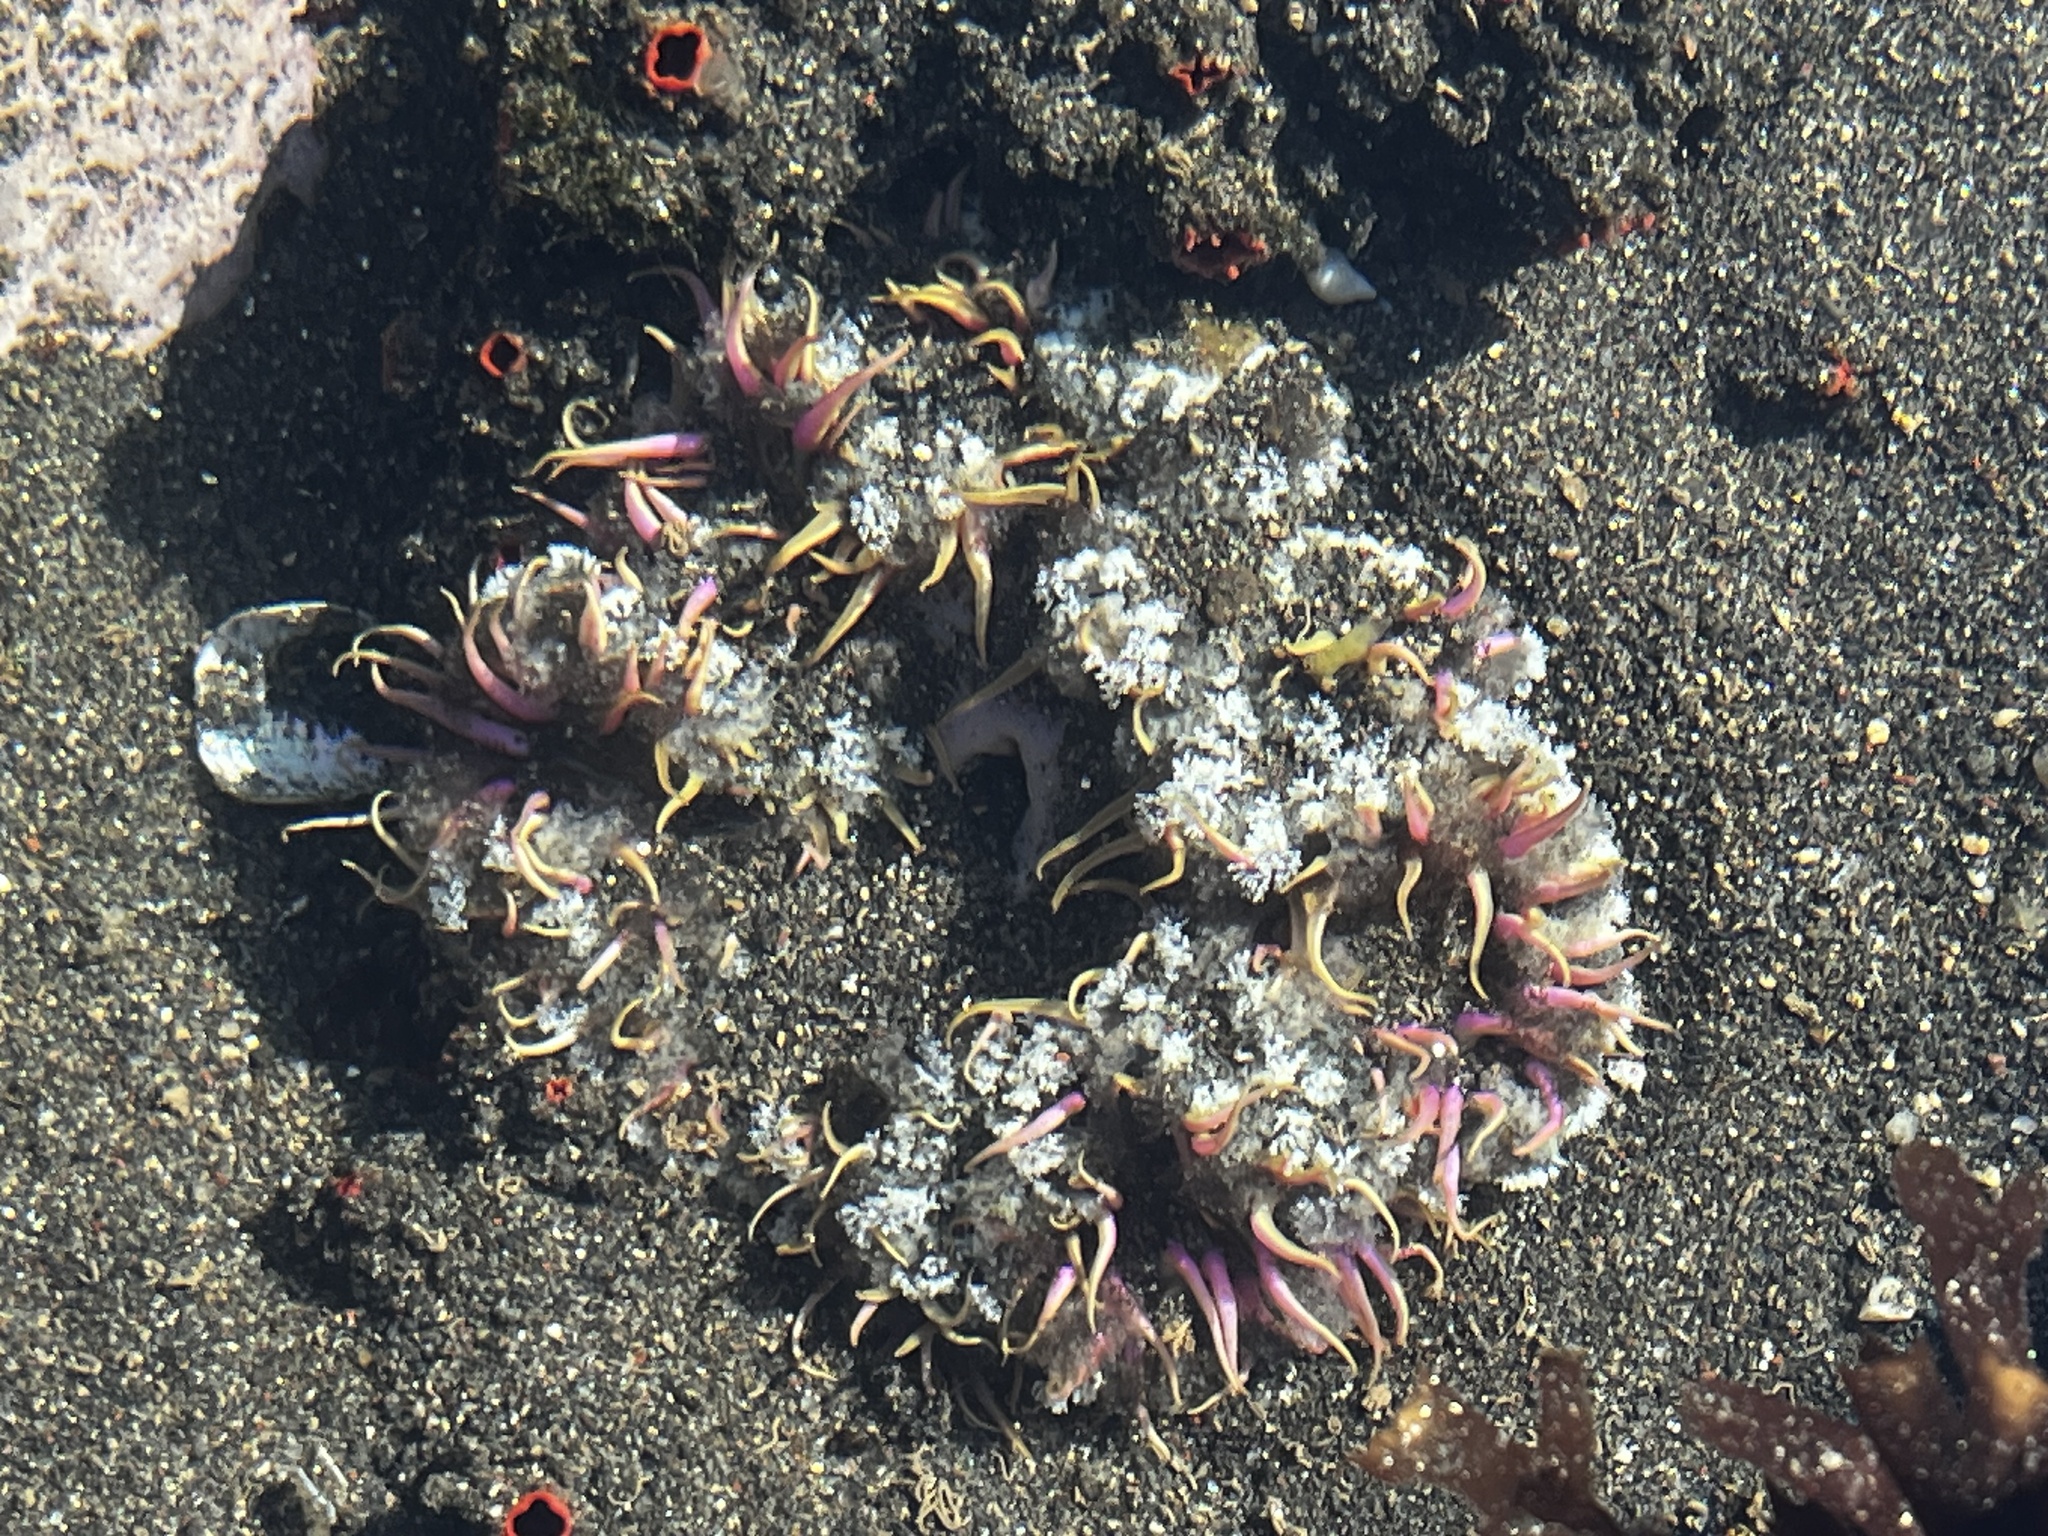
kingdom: Animalia
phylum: Cnidaria
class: Anthozoa
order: Actiniaria
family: Actiniidae
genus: Oulactis
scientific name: Oulactis concinnata
